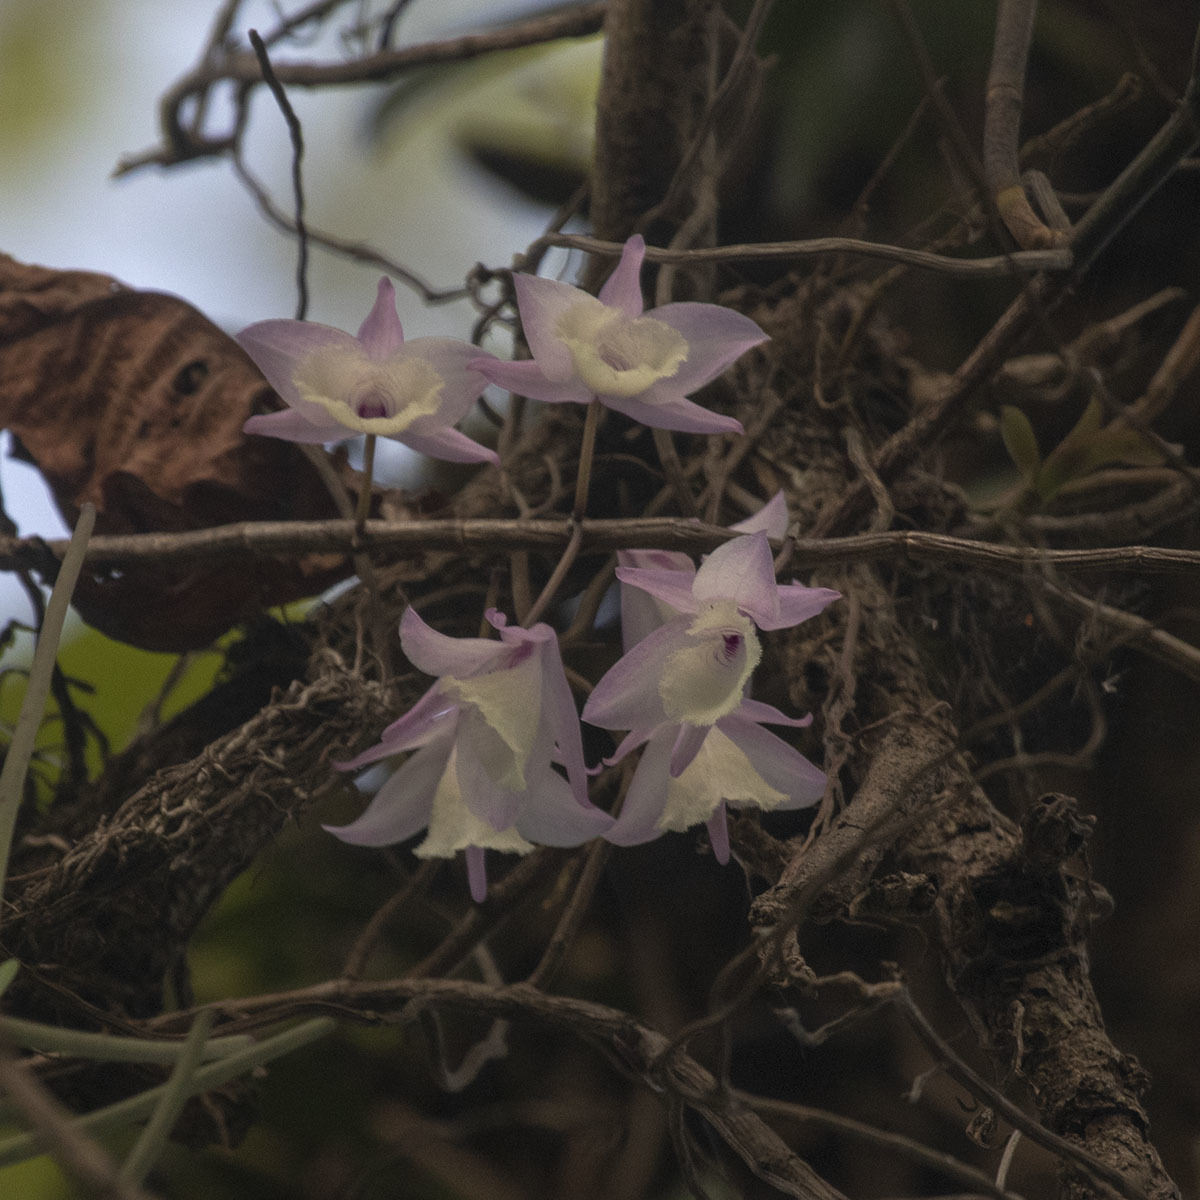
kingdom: Plantae
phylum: Tracheophyta
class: Liliopsida
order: Asparagales
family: Orchidaceae
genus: Dendrobium
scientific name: Dendrobium aphyllum
